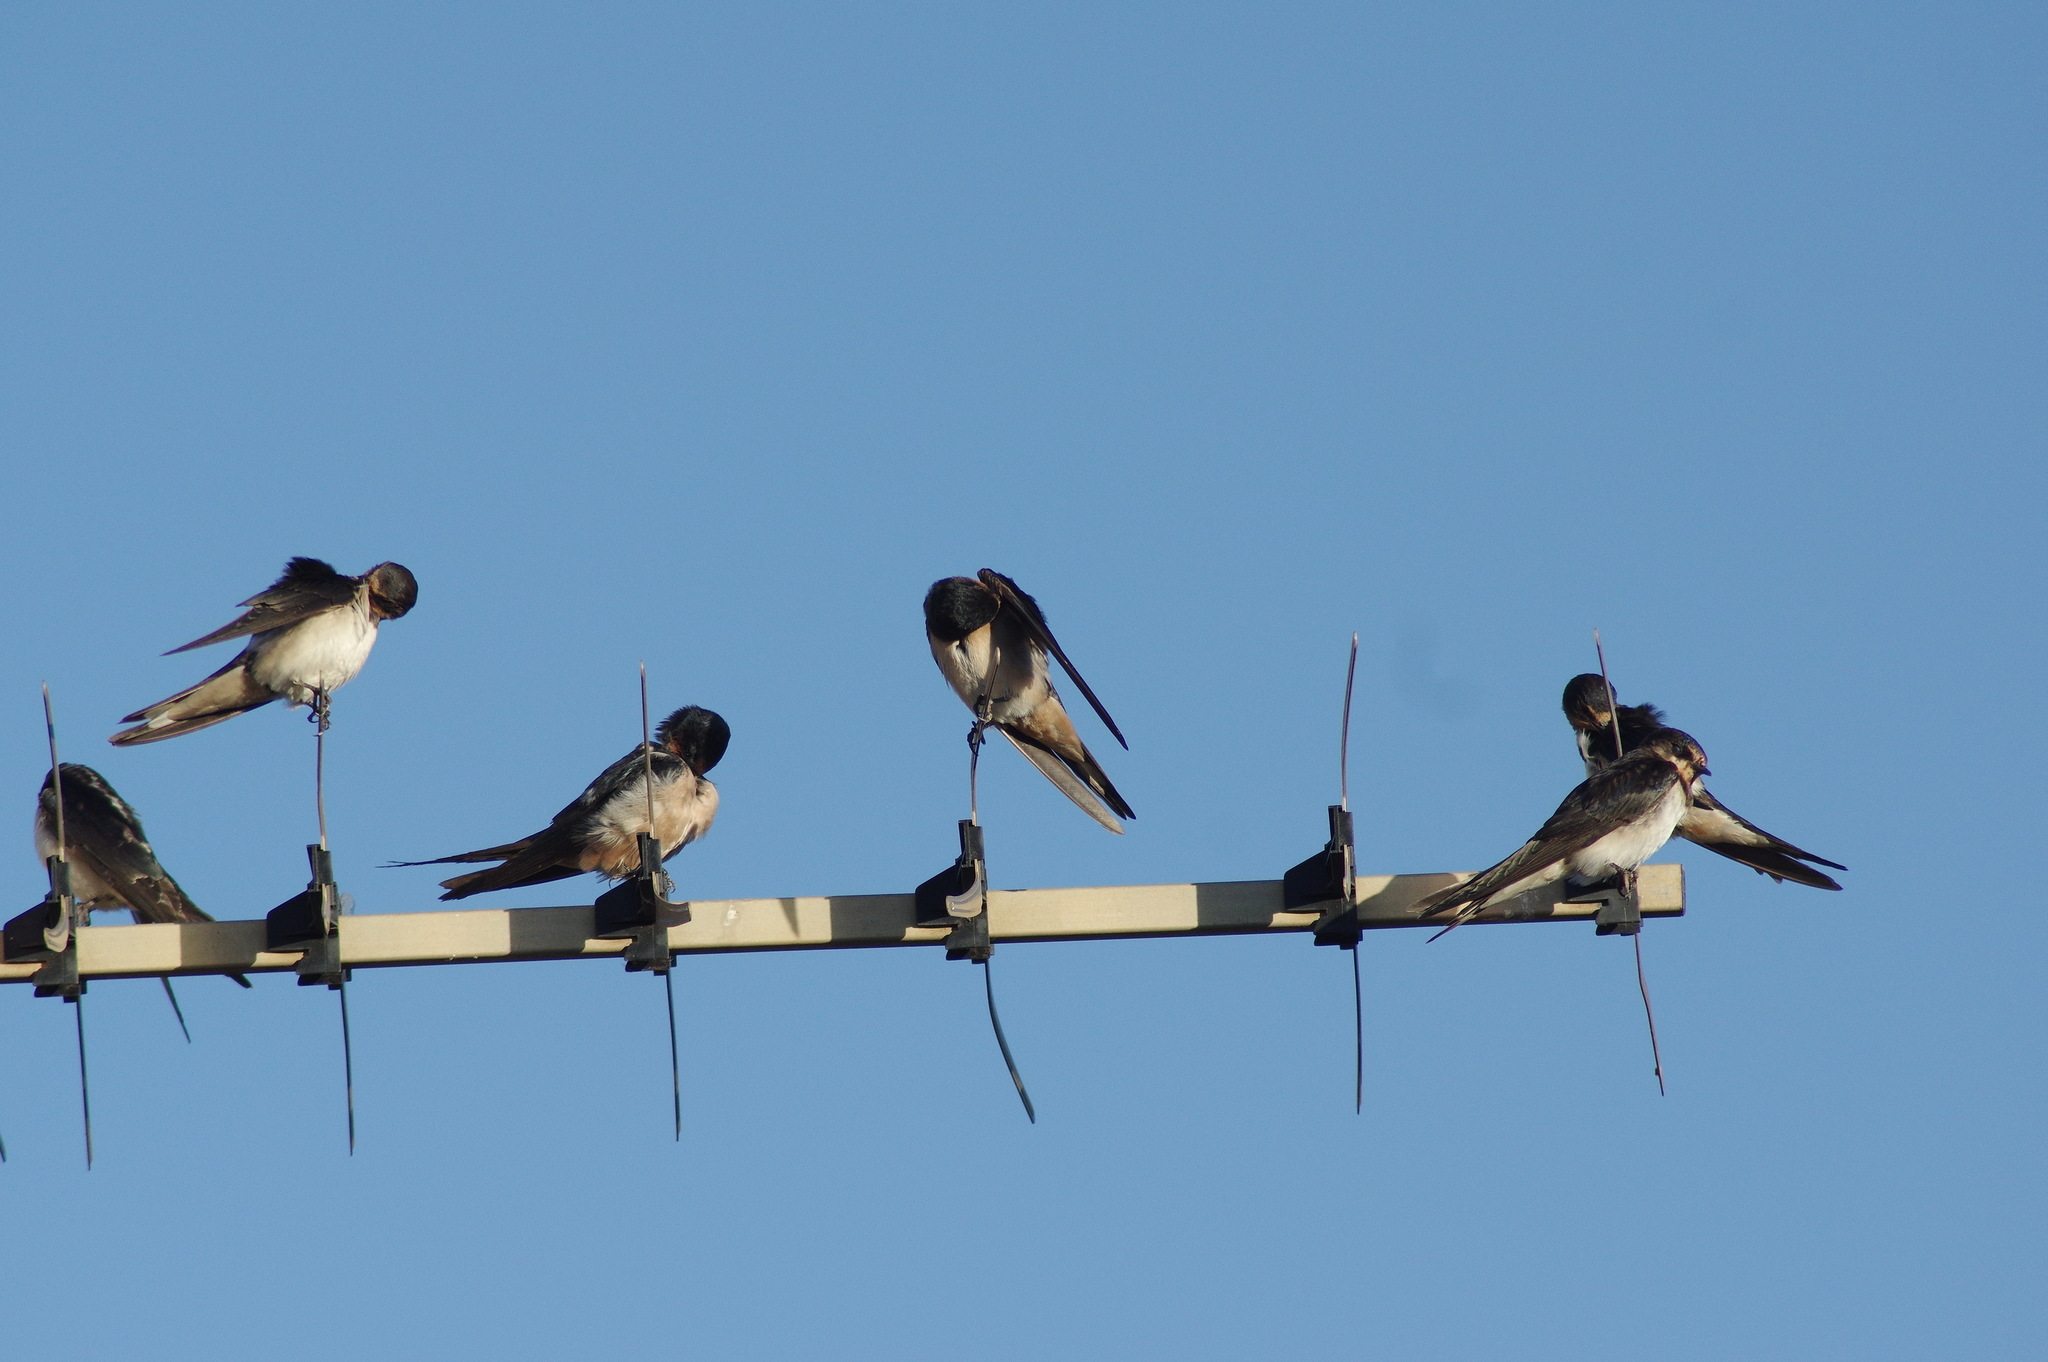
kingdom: Animalia
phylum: Chordata
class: Aves
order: Passeriformes
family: Hirundinidae
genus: Hirundo
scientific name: Hirundo rustica
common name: Barn swallow
